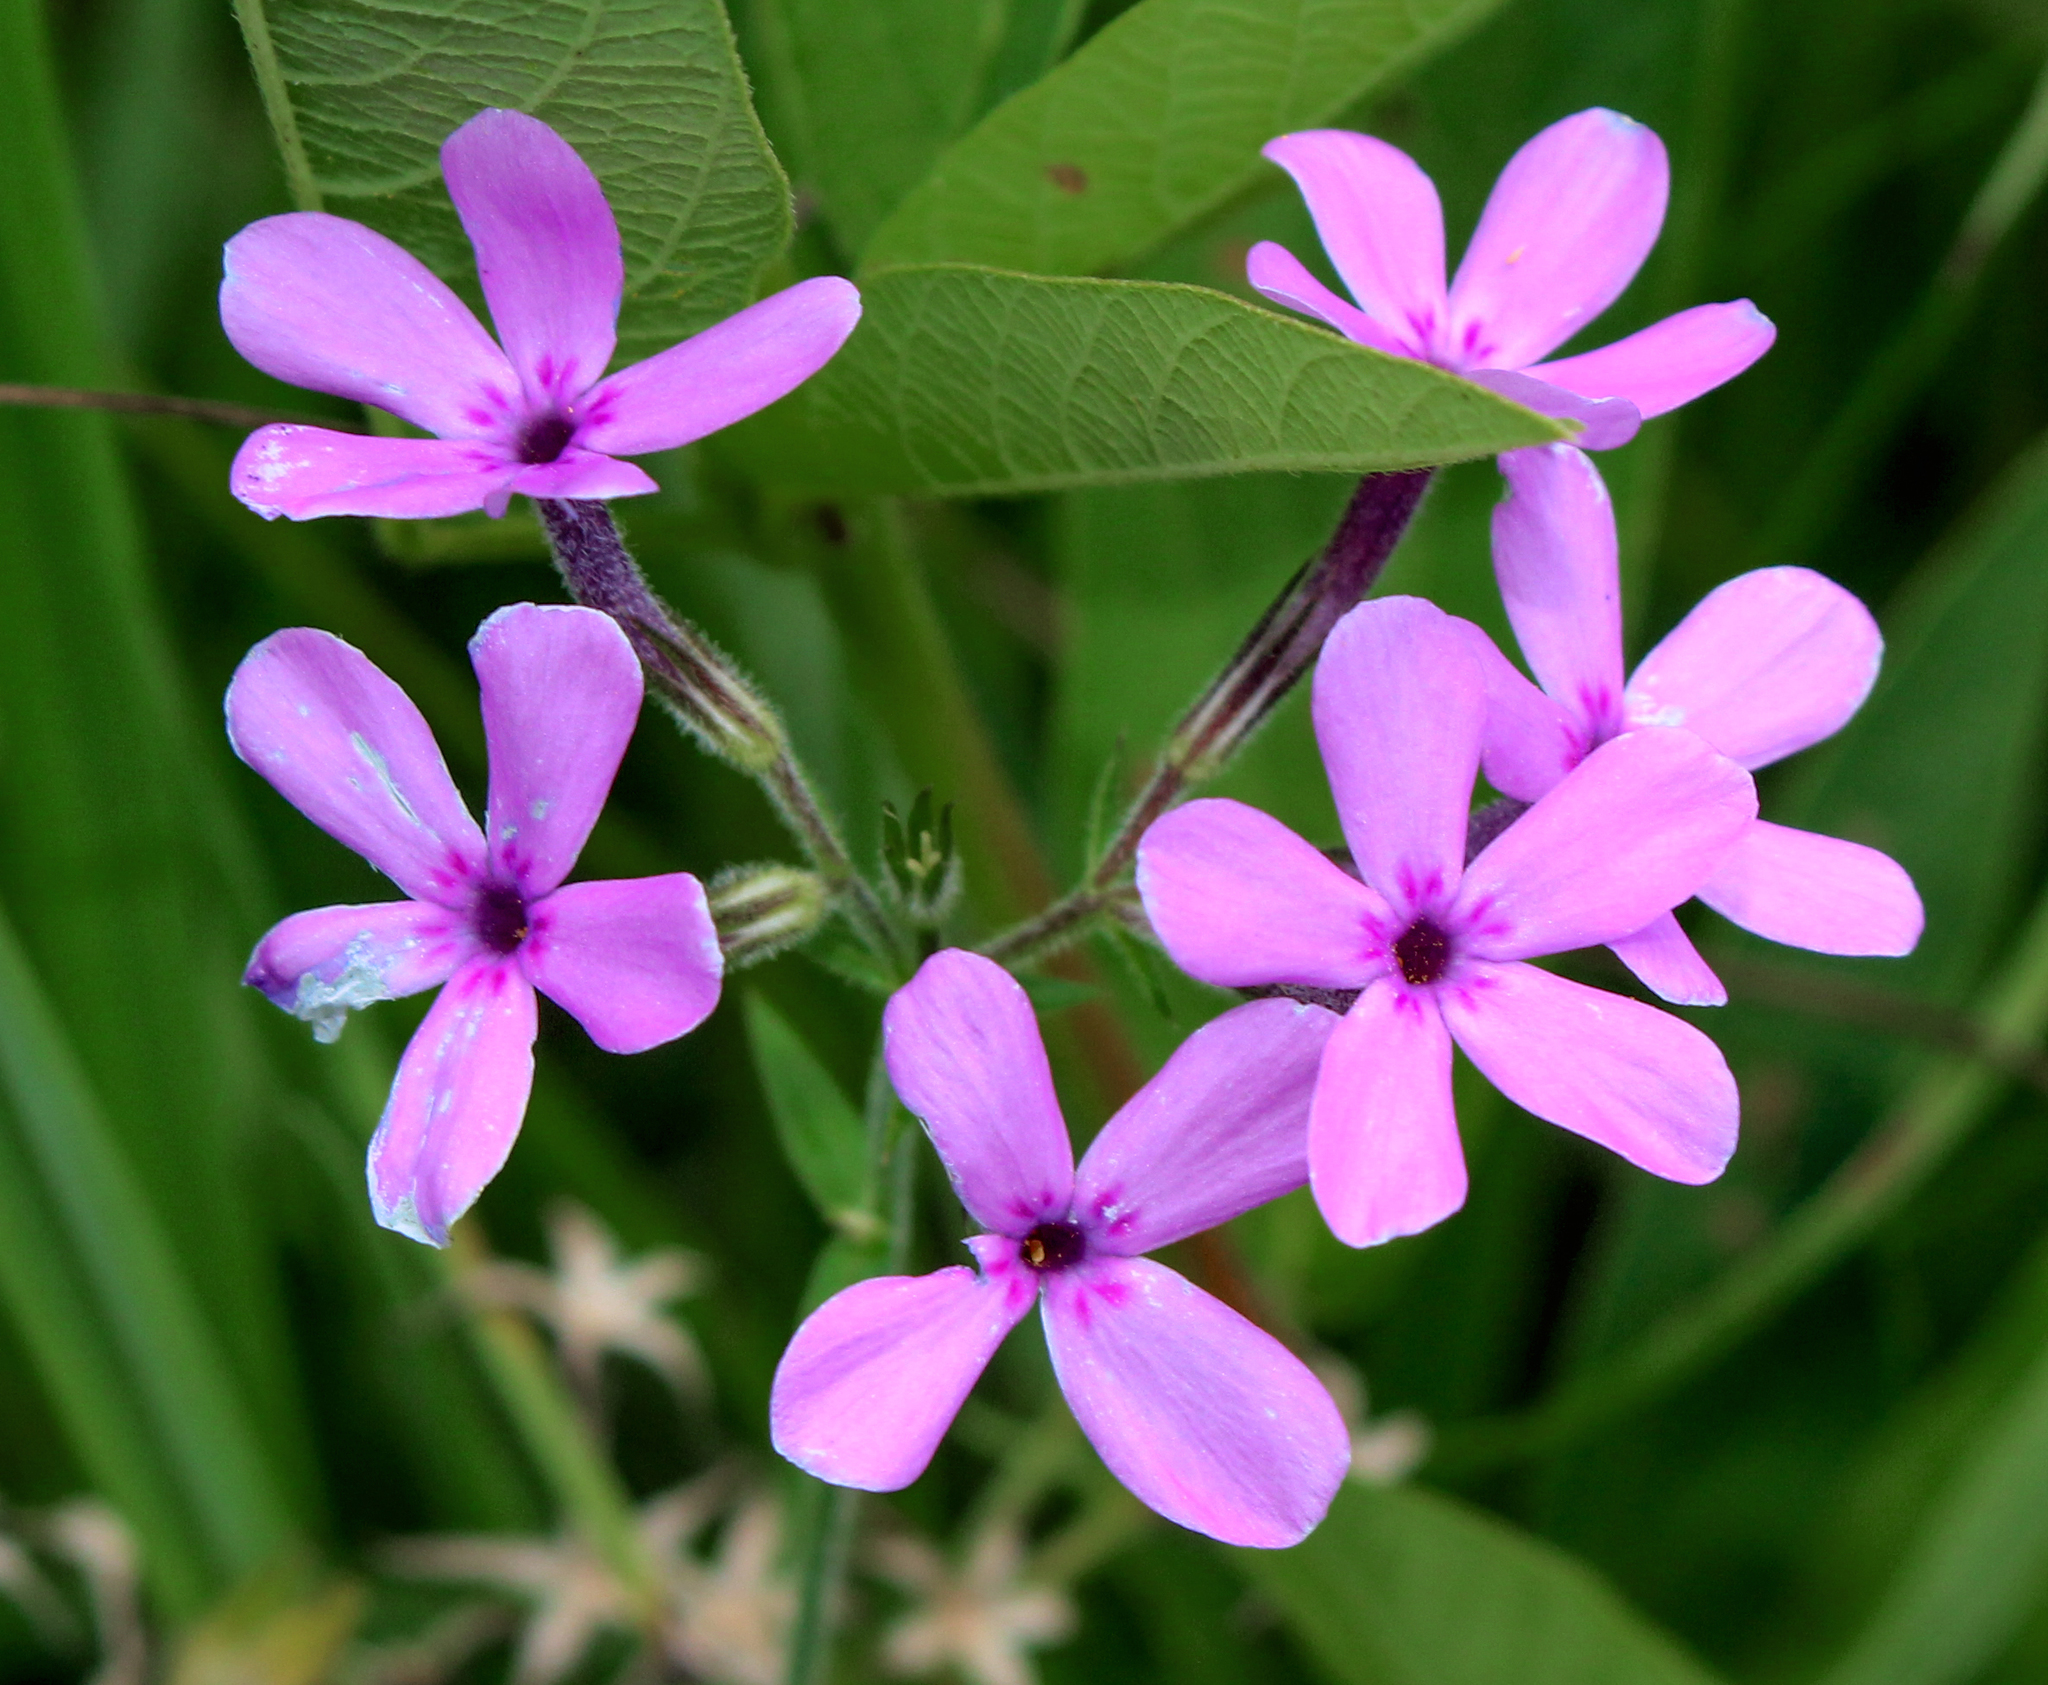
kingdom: Plantae
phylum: Tracheophyta
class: Magnoliopsida
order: Ericales
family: Polemoniaceae
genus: Phlox
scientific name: Phlox pilosa
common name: Prairie phlox
